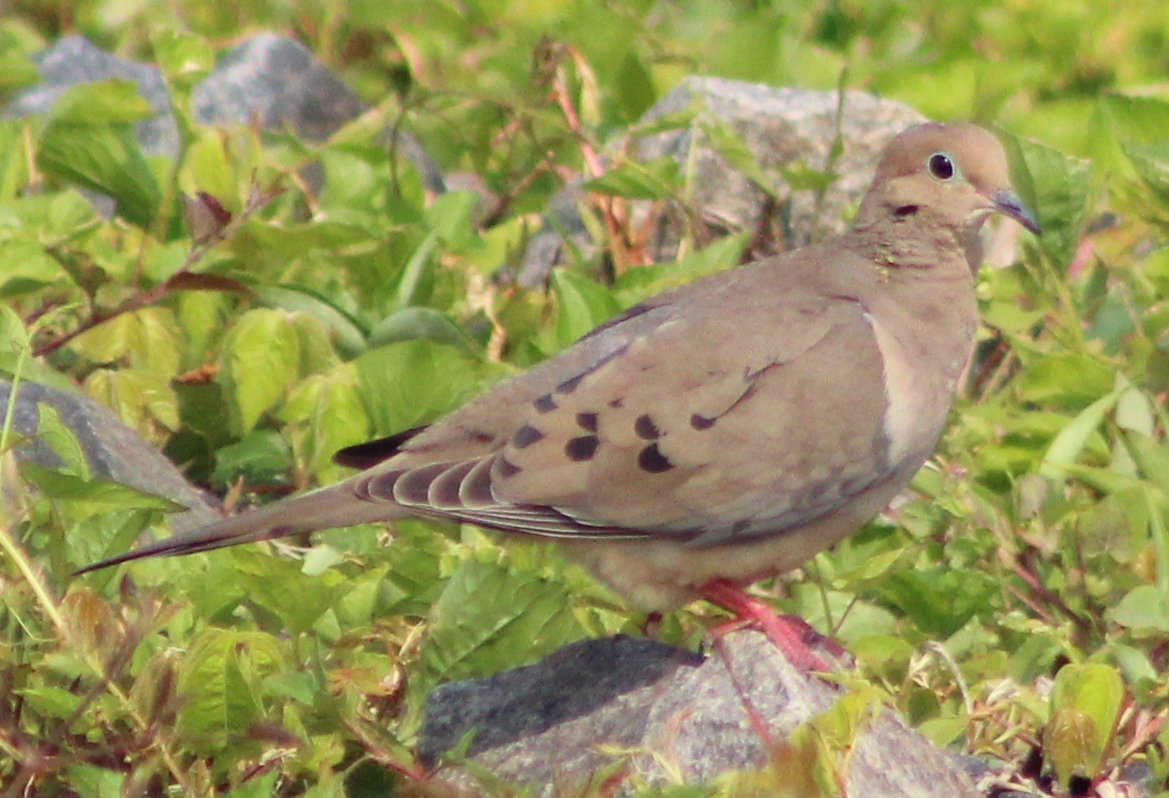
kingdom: Animalia
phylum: Chordata
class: Aves
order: Columbiformes
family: Columbidae
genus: Zenaida
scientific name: Zenaida macroura
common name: Mourning dove
